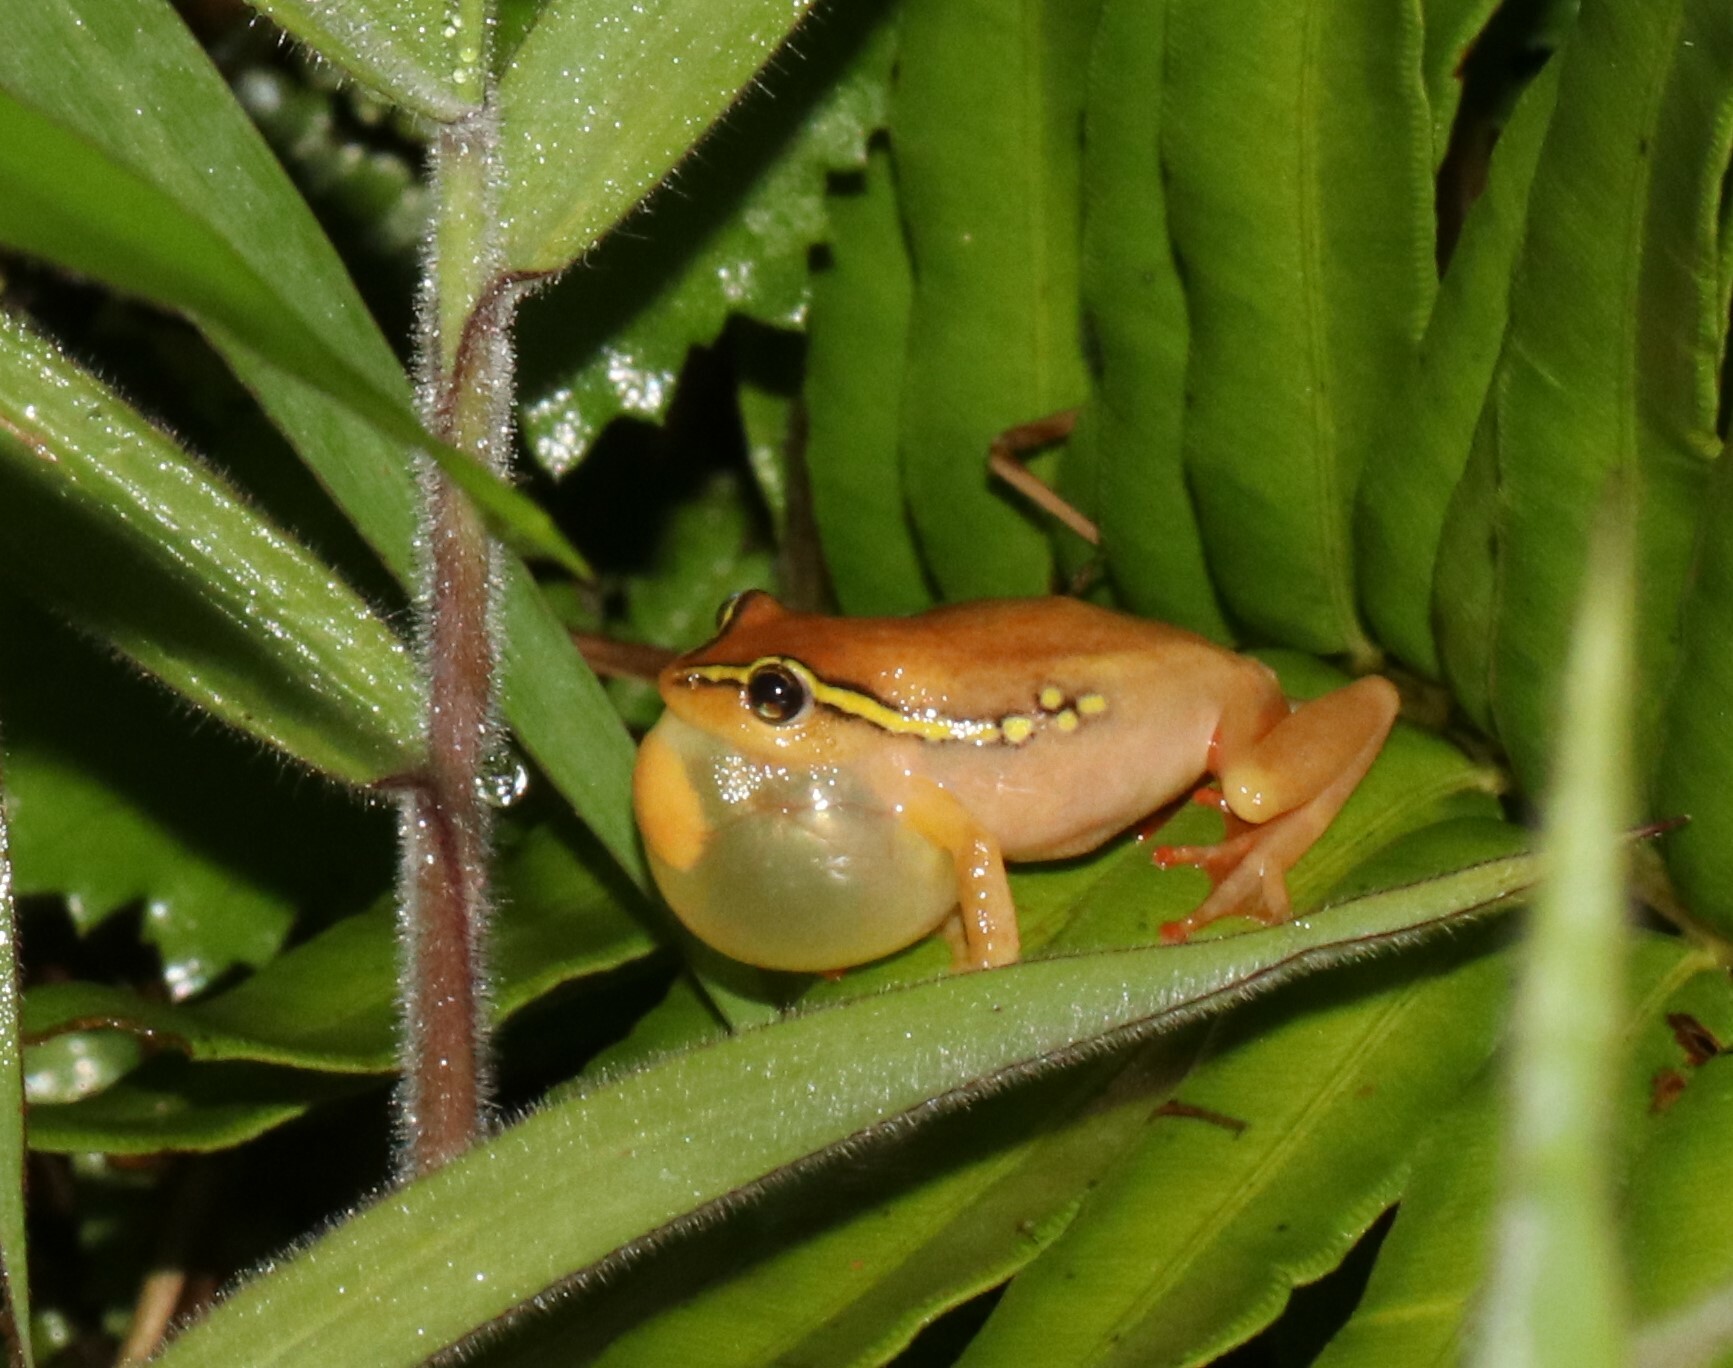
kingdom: Animalia
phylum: Chordata
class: Amphibia
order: Anura
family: Hyperoliidae
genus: Hyperolius
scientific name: Hyperolius substriatus
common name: Spotted reed frog
